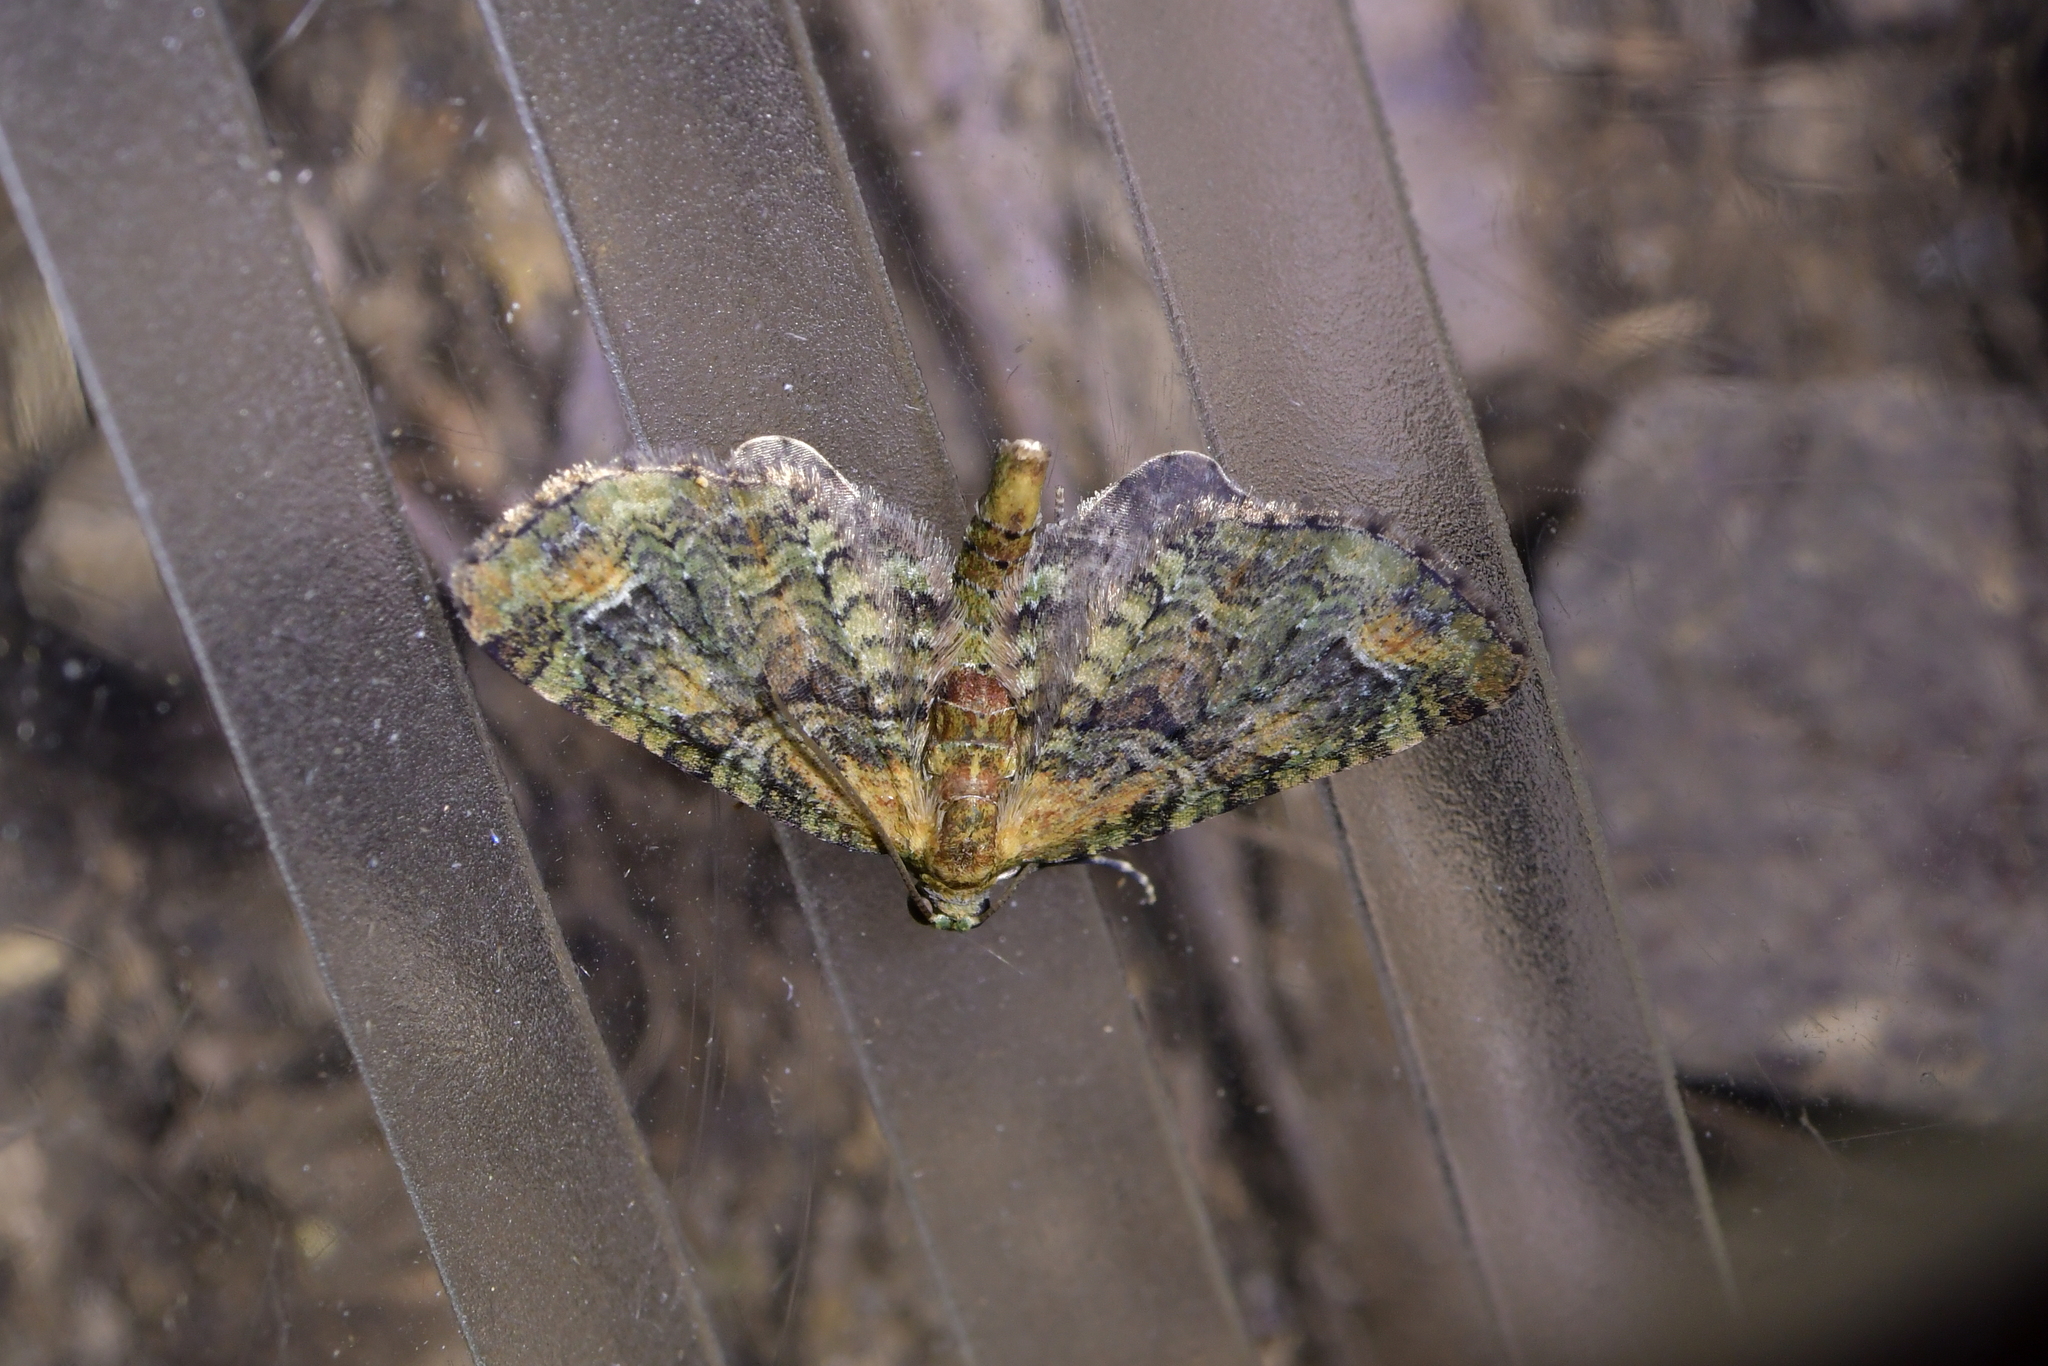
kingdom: Animalia
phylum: Arthropoda
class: Insecta
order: Lepidoptera
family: Geometridae
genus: Idaea
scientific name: Idaea mutanda
